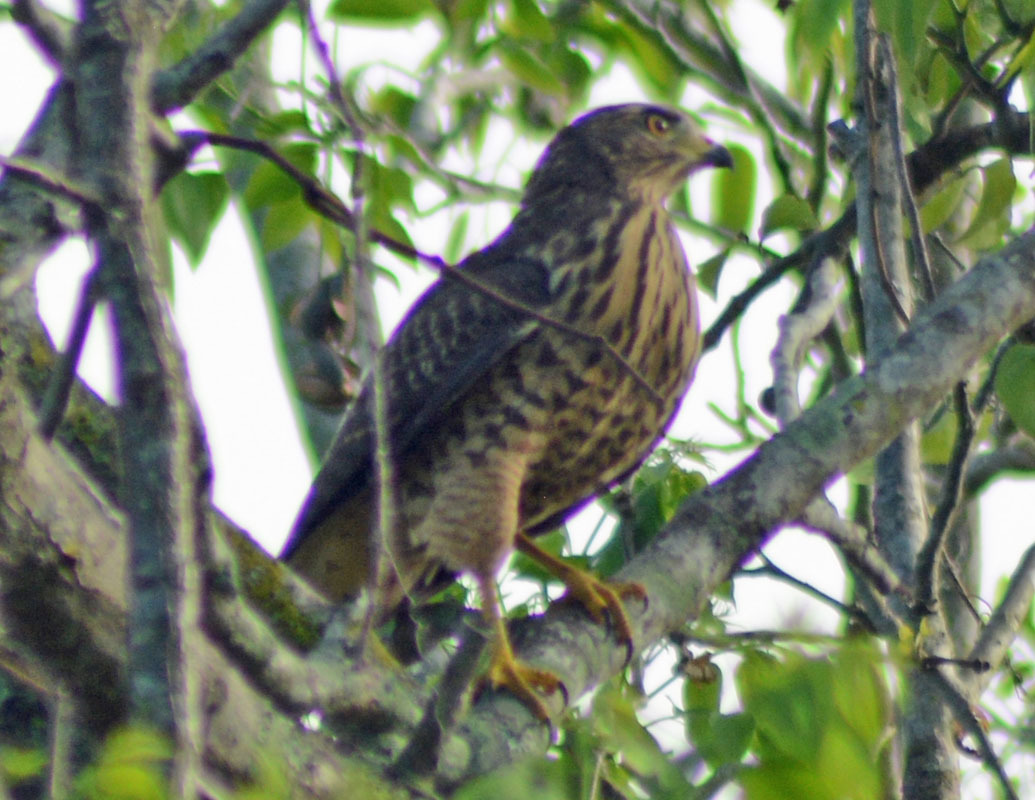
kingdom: Animalia
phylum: Chordata
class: Aves
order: Accipitriformes
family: Accipitridae
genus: Rupornis
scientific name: Rupornis magnirostris
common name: Roadside hawk
